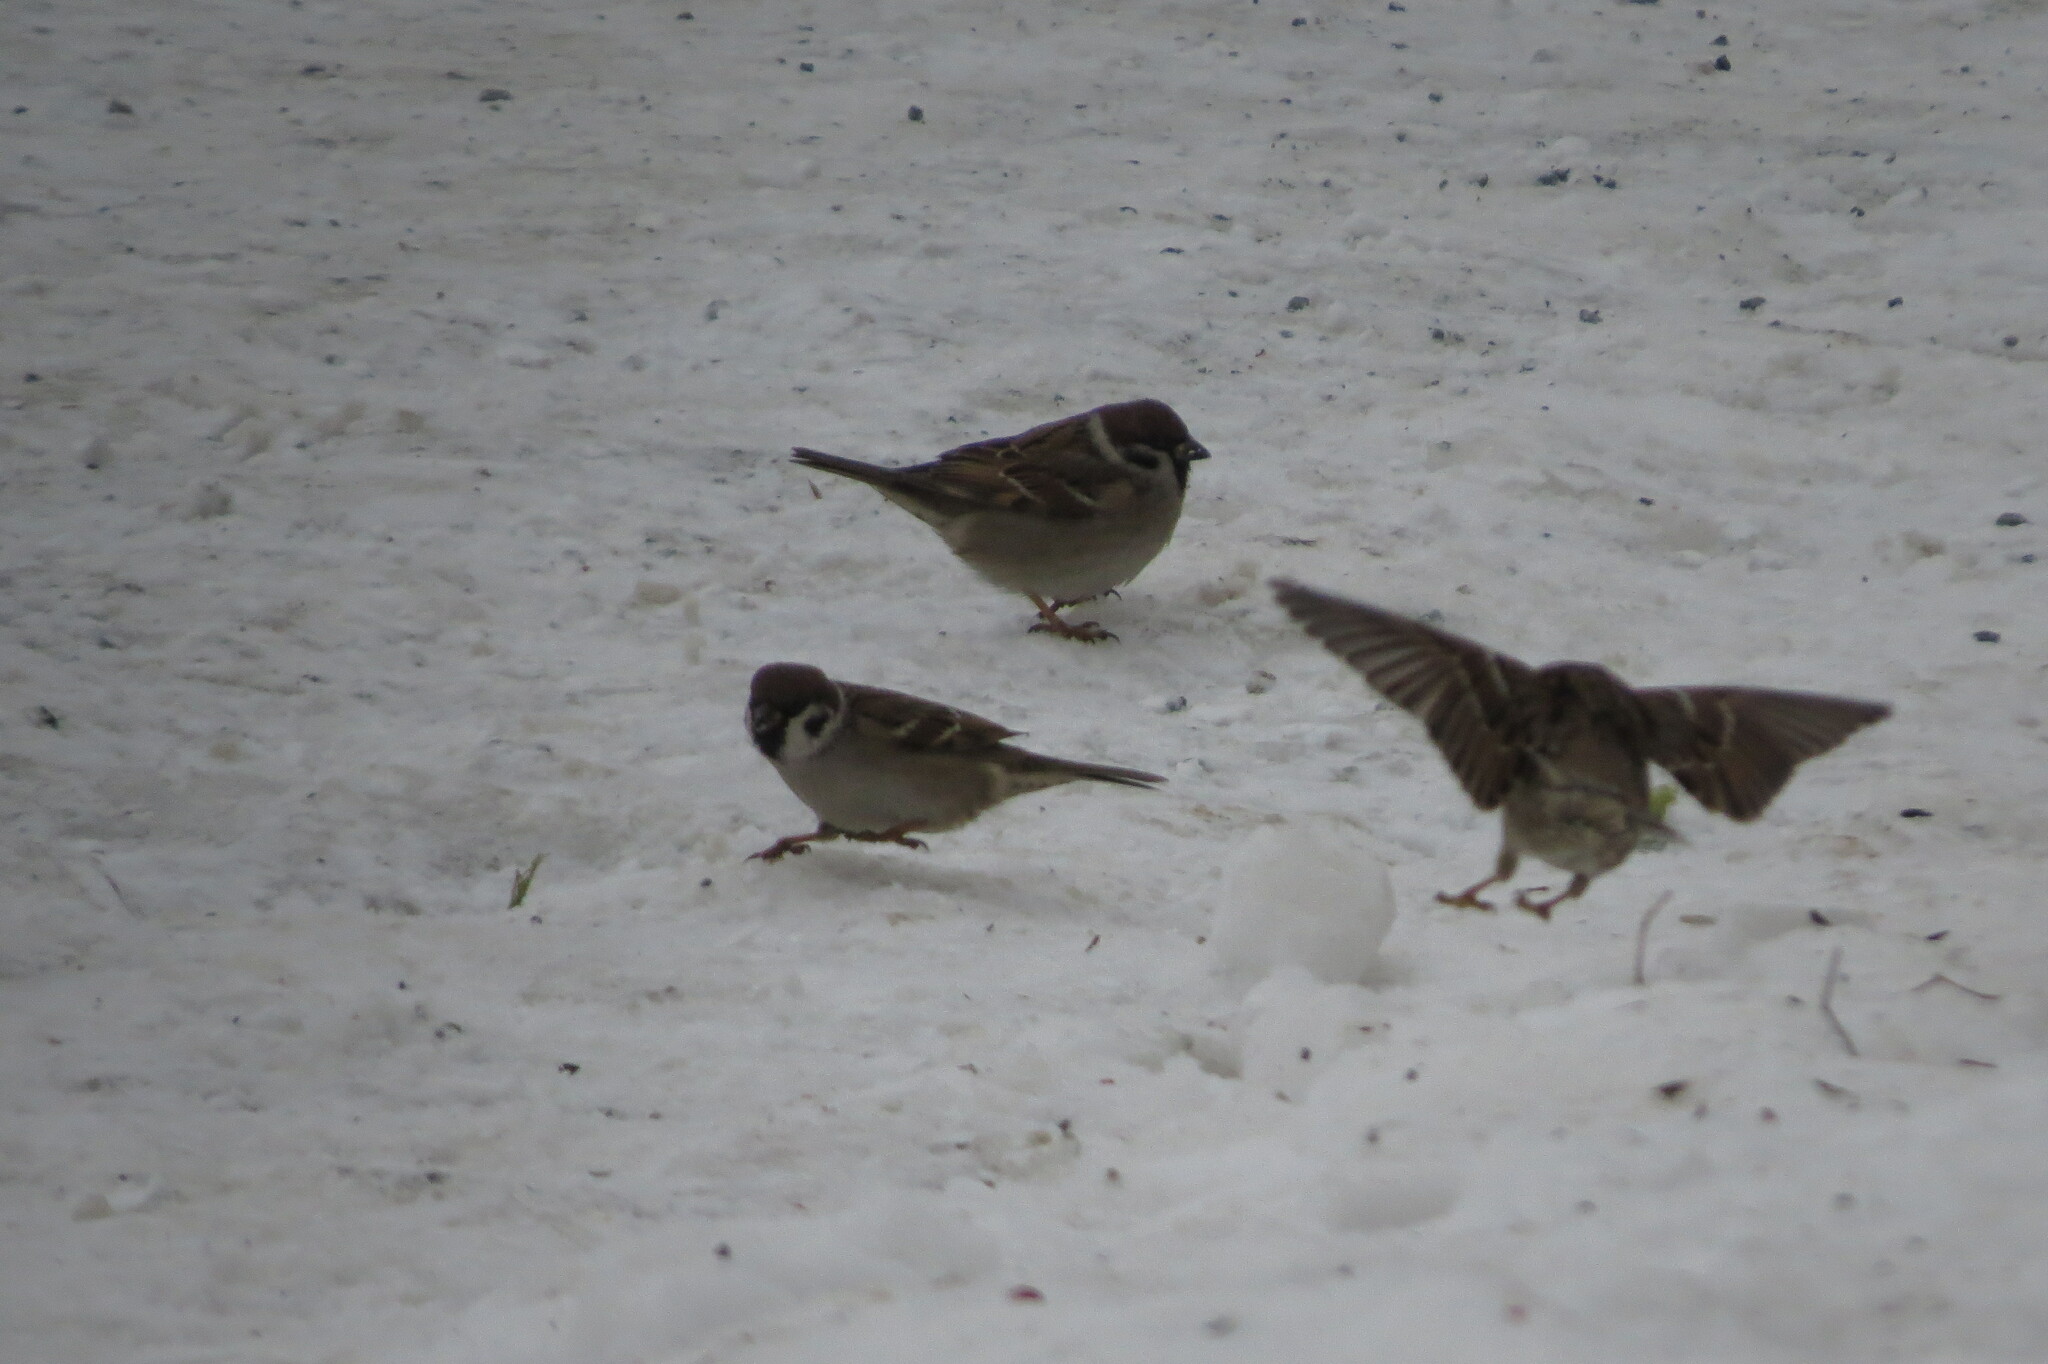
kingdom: Animalia
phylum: Chordata
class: Aves
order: Passeriformes
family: Passeridae
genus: Passer
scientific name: Passer montanus
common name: Eurasian tree sparrow
